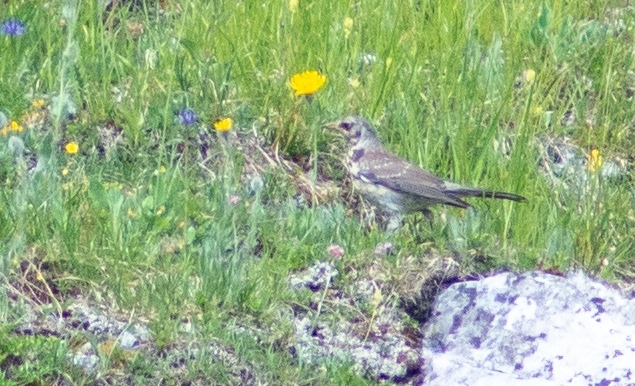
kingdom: Animalia
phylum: Chordata
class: Aves
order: Passeriformes
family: Turdidae
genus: Turdus
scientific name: Turdus pilaris
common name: Fieldfare
